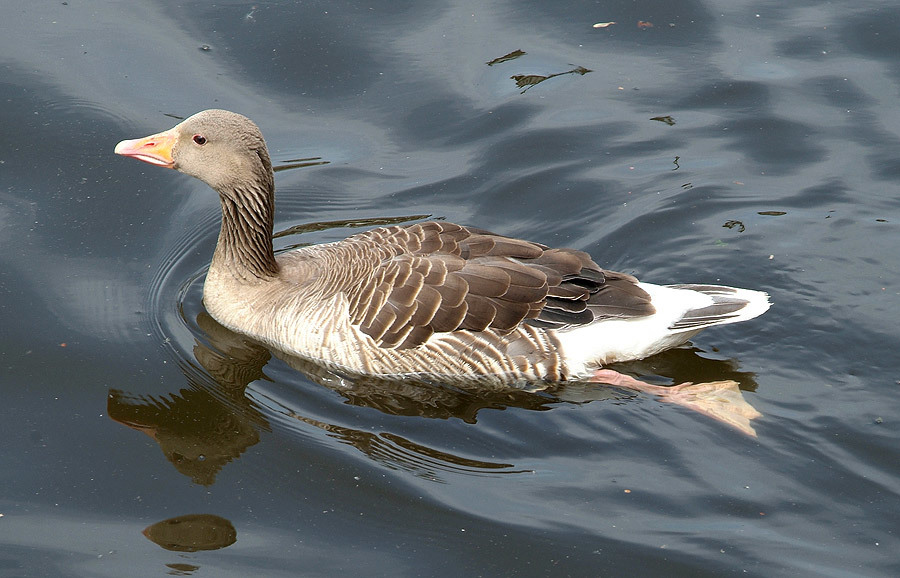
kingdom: Animalia
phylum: Chordata
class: Aves
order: Anseriformes
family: Anatidae
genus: Anser
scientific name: Anser anser
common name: Greylag goose
